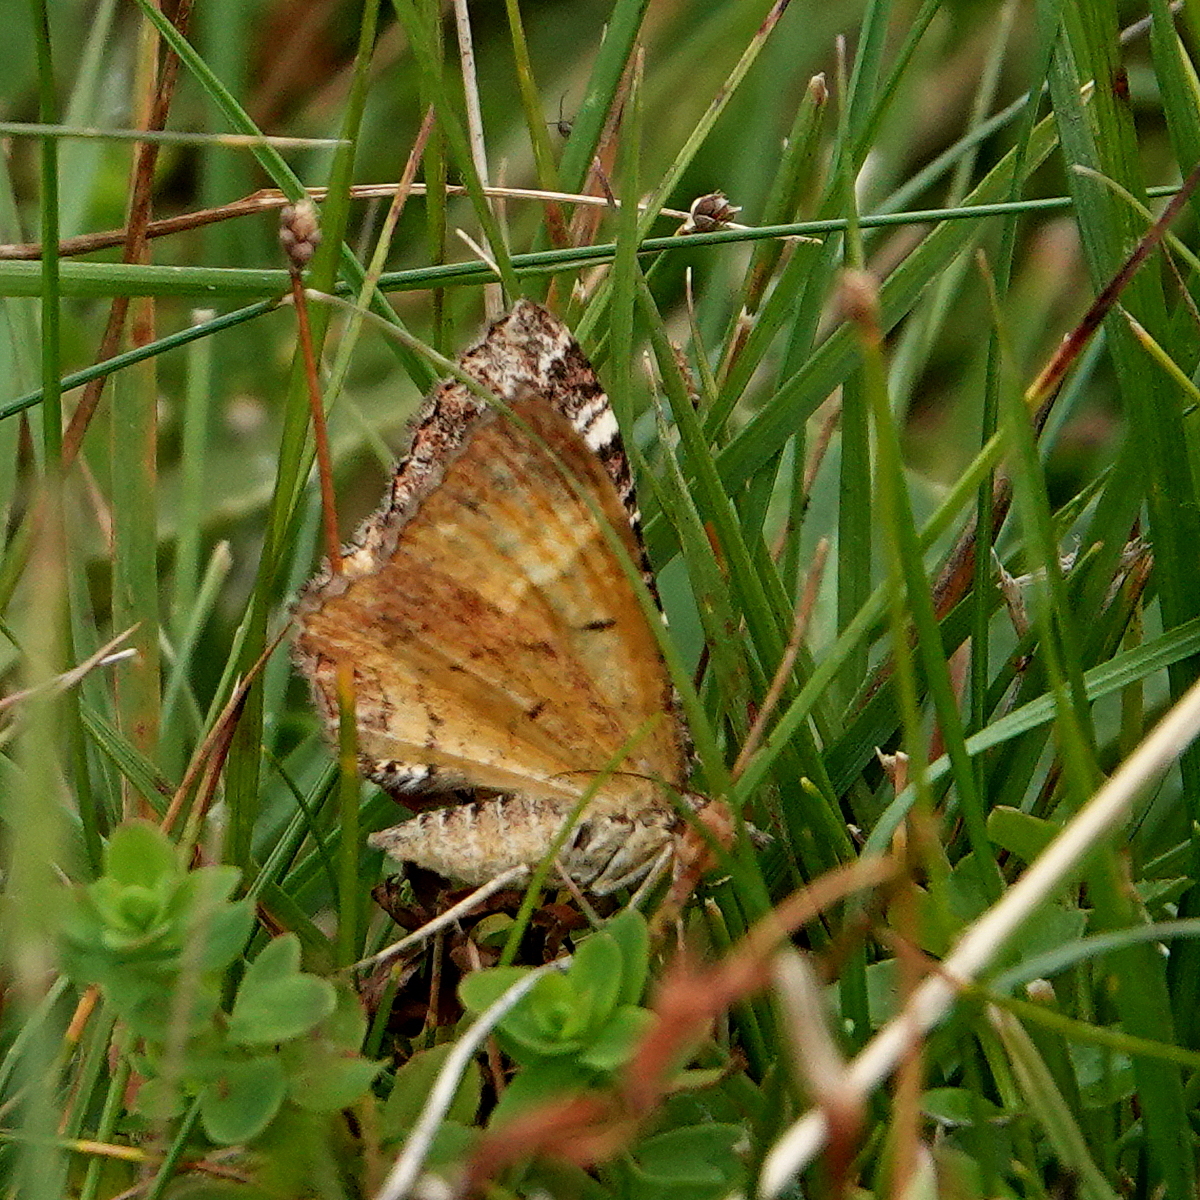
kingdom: Animalia
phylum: Arthropoda
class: Insecta
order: Lepidoptera
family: Geometridae
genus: Chrysolarentia
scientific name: Chrysolarentia vicissata
